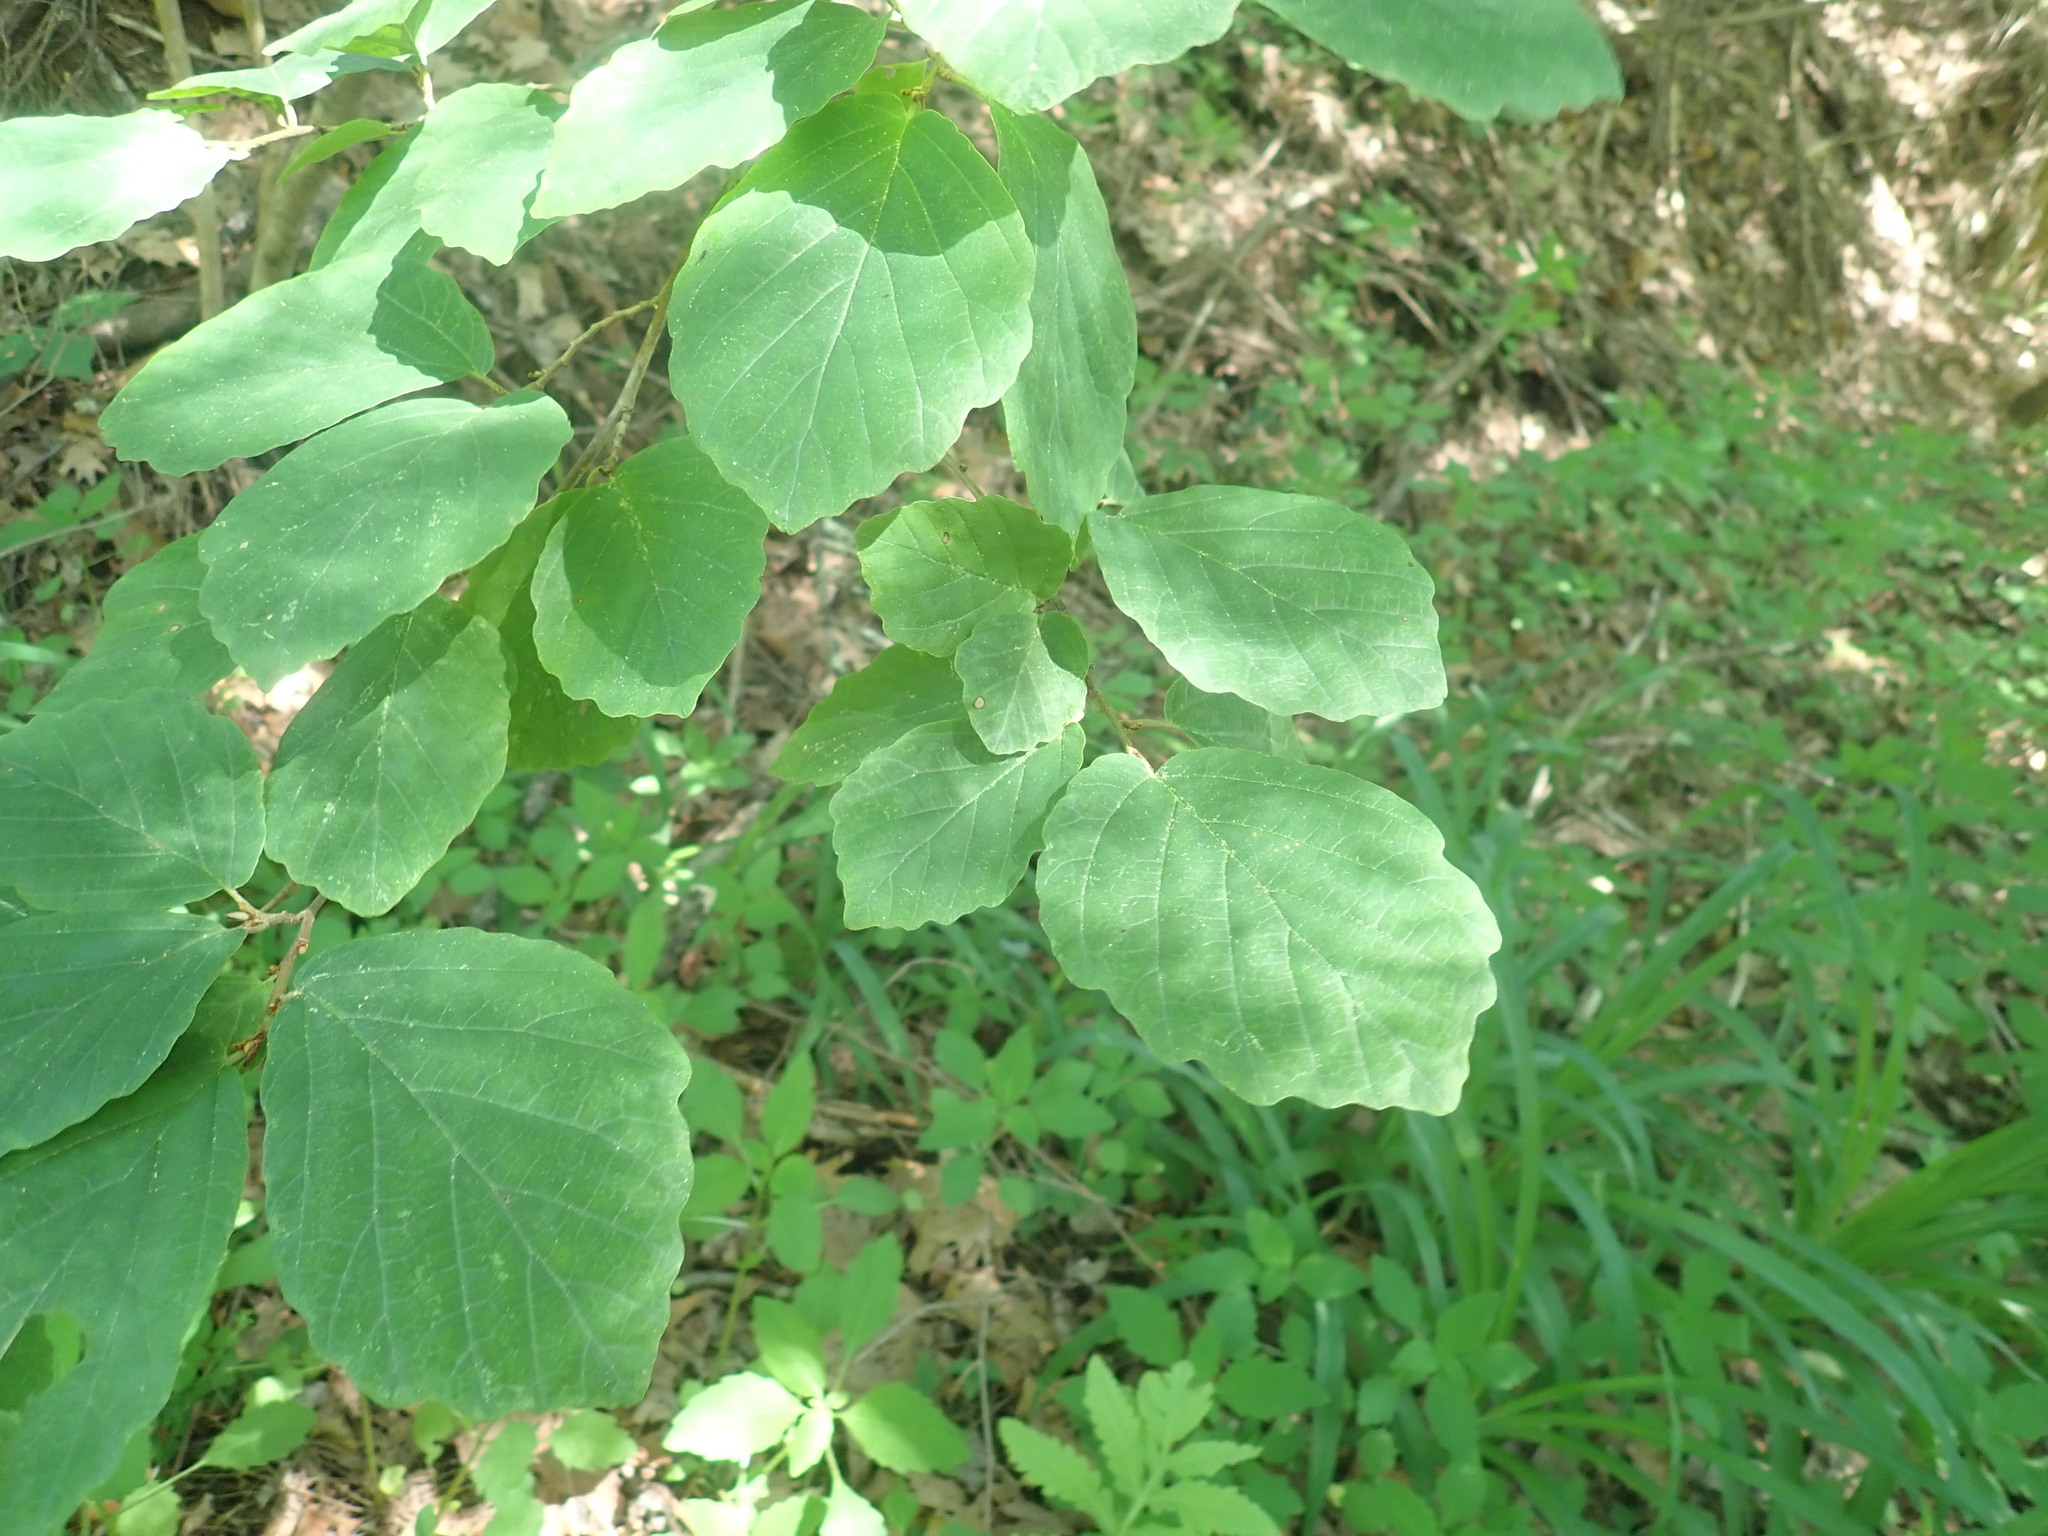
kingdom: Plantae
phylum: Tracheophyta
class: Magnoliopsida
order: Saxifragales
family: Hamamelidaceae
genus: Hamamelis
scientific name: Hamamelis virginiana
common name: Witch-hazel
